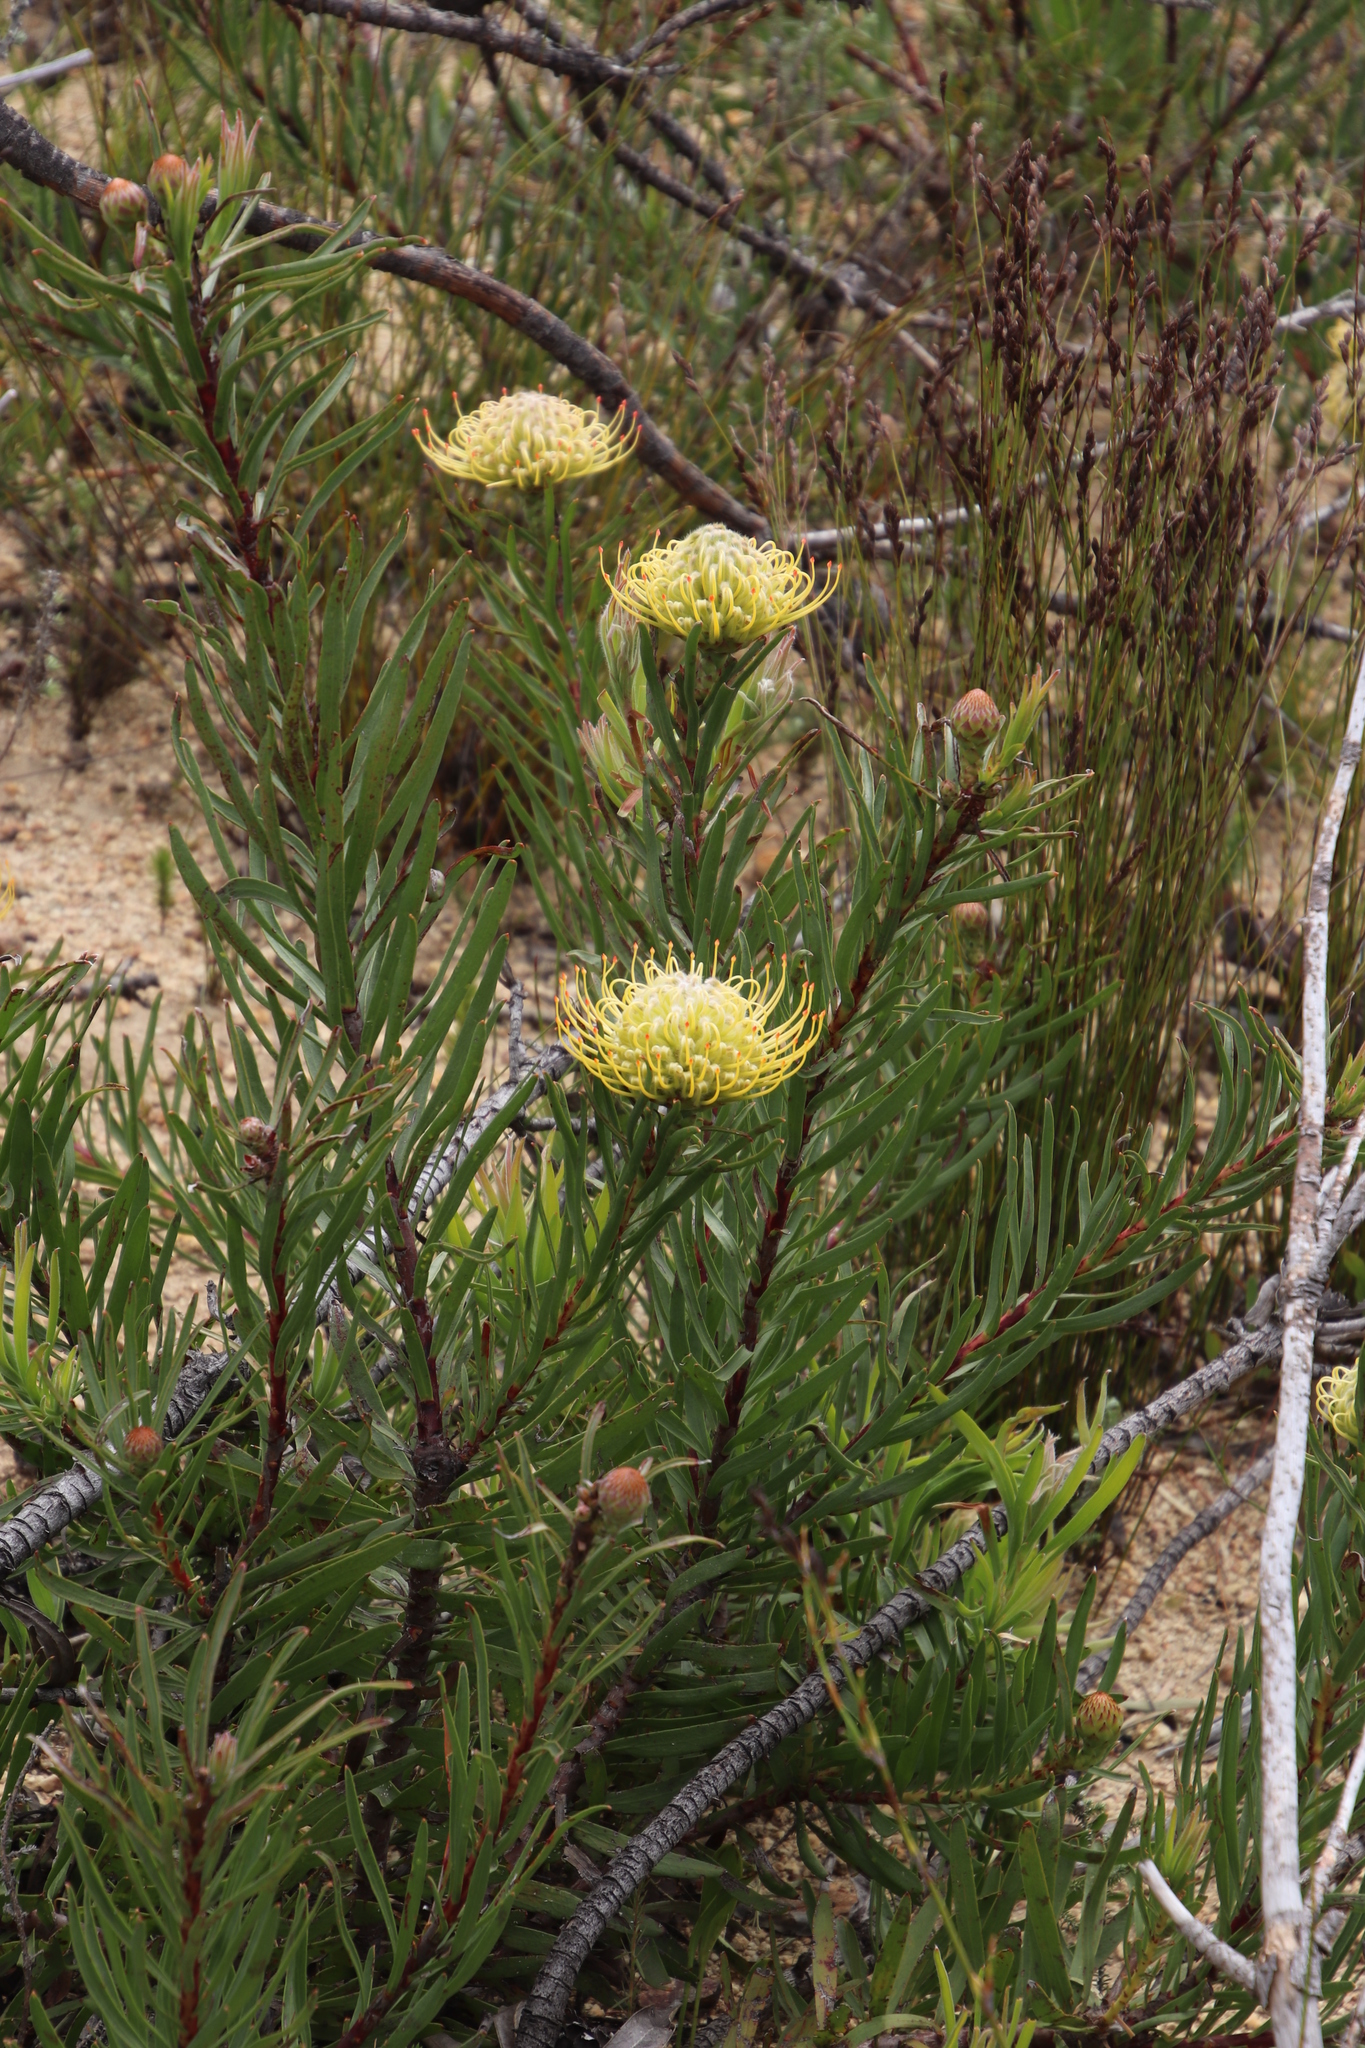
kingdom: Plantae
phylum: Tracheophyta
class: Magnoliopsida
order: Proteales
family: Proteaceae
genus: Leucospermum
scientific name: Leucospermum lineare
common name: Needle-leaf pincushion
